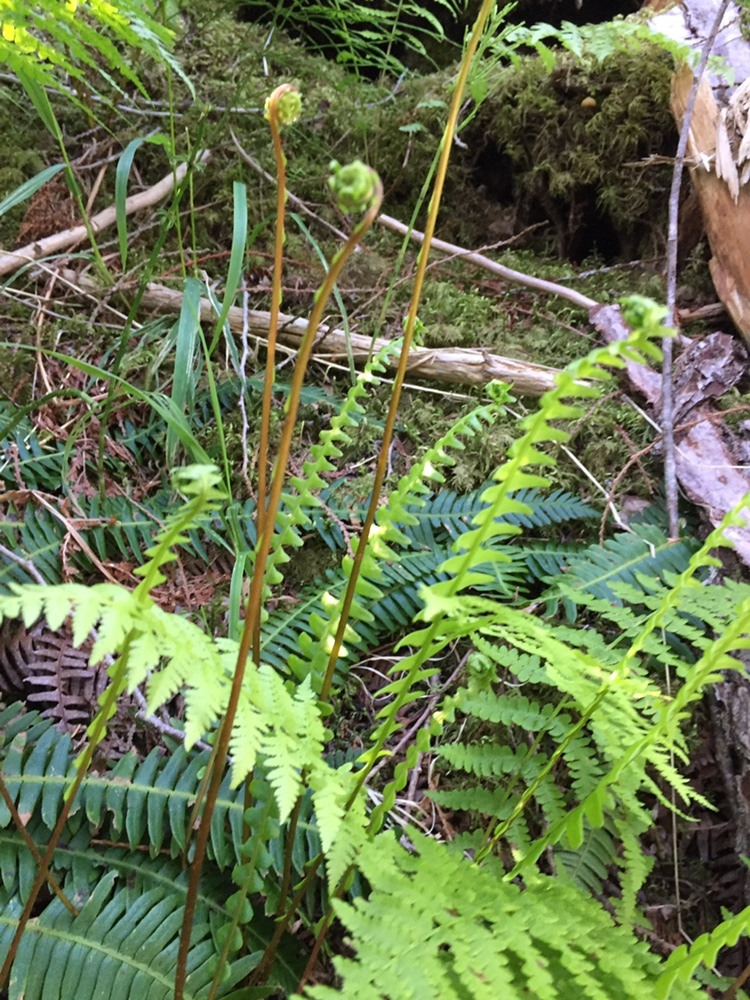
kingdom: Plantae
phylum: Tracheophyta
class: Polypodiopsida
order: Polypodiales
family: Blechnaceae
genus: Struthiopteris
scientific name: Struthiopteris spicant
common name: Deer fern
